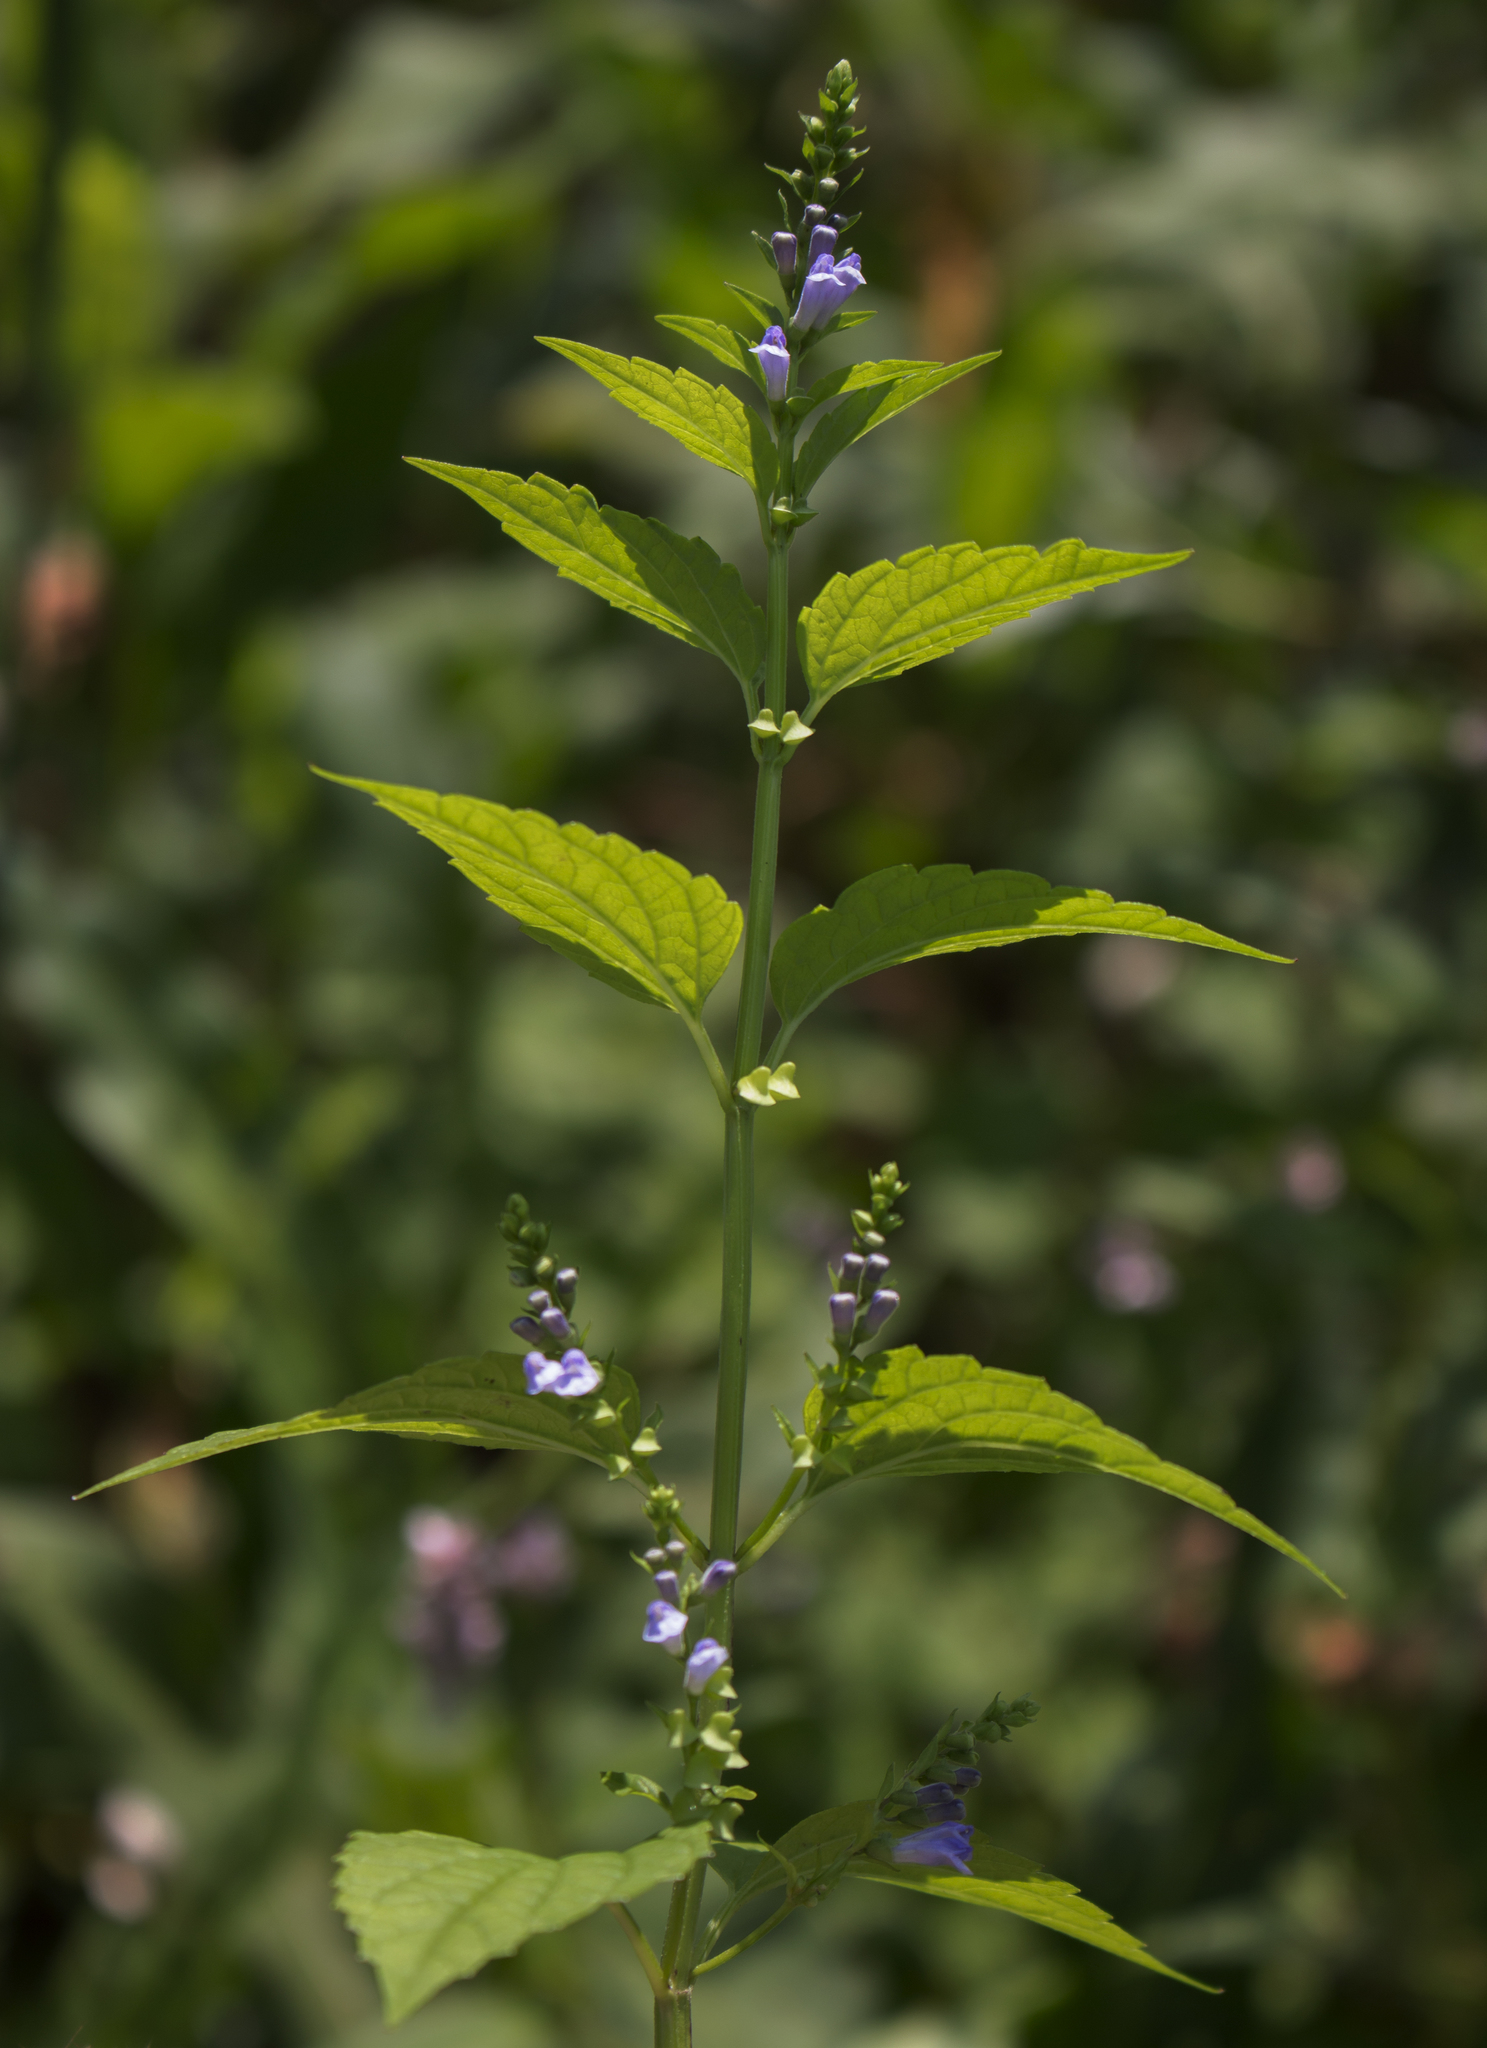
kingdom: Plantae
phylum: Tracheophyta
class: Magnoliopsida
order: Lamiales
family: Lamiaceae
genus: Scutellaria
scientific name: Scutellaria lateriflora
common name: Blue skullcap
